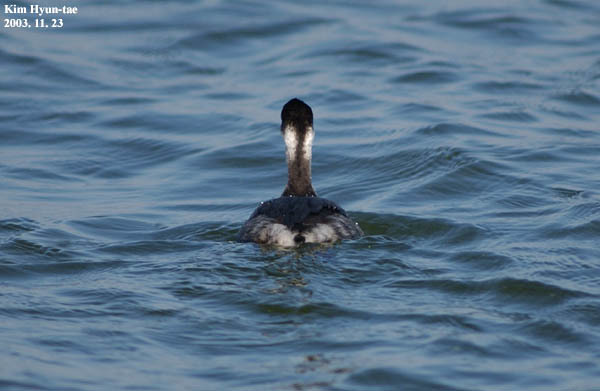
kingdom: Animalia
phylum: Chordata
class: Aves
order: Podicipediformes
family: Podicipedidae
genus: Podiceps
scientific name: Podiceps nigricollis
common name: Black-necked grebe
